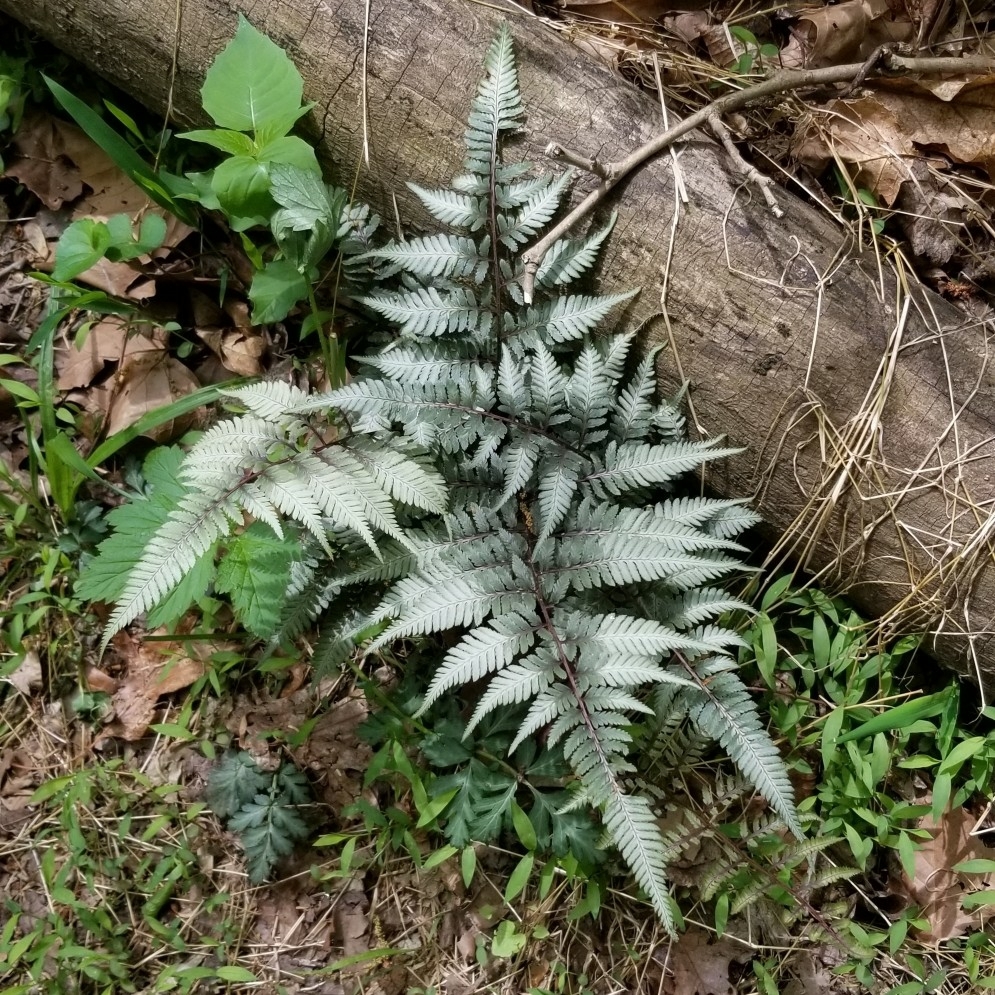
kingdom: Plantae
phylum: Tracheophyta
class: Polypodiopsida
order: Polypodiales
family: Athyriaceae
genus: Anisocampium
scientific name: Anisocampium niponicum
